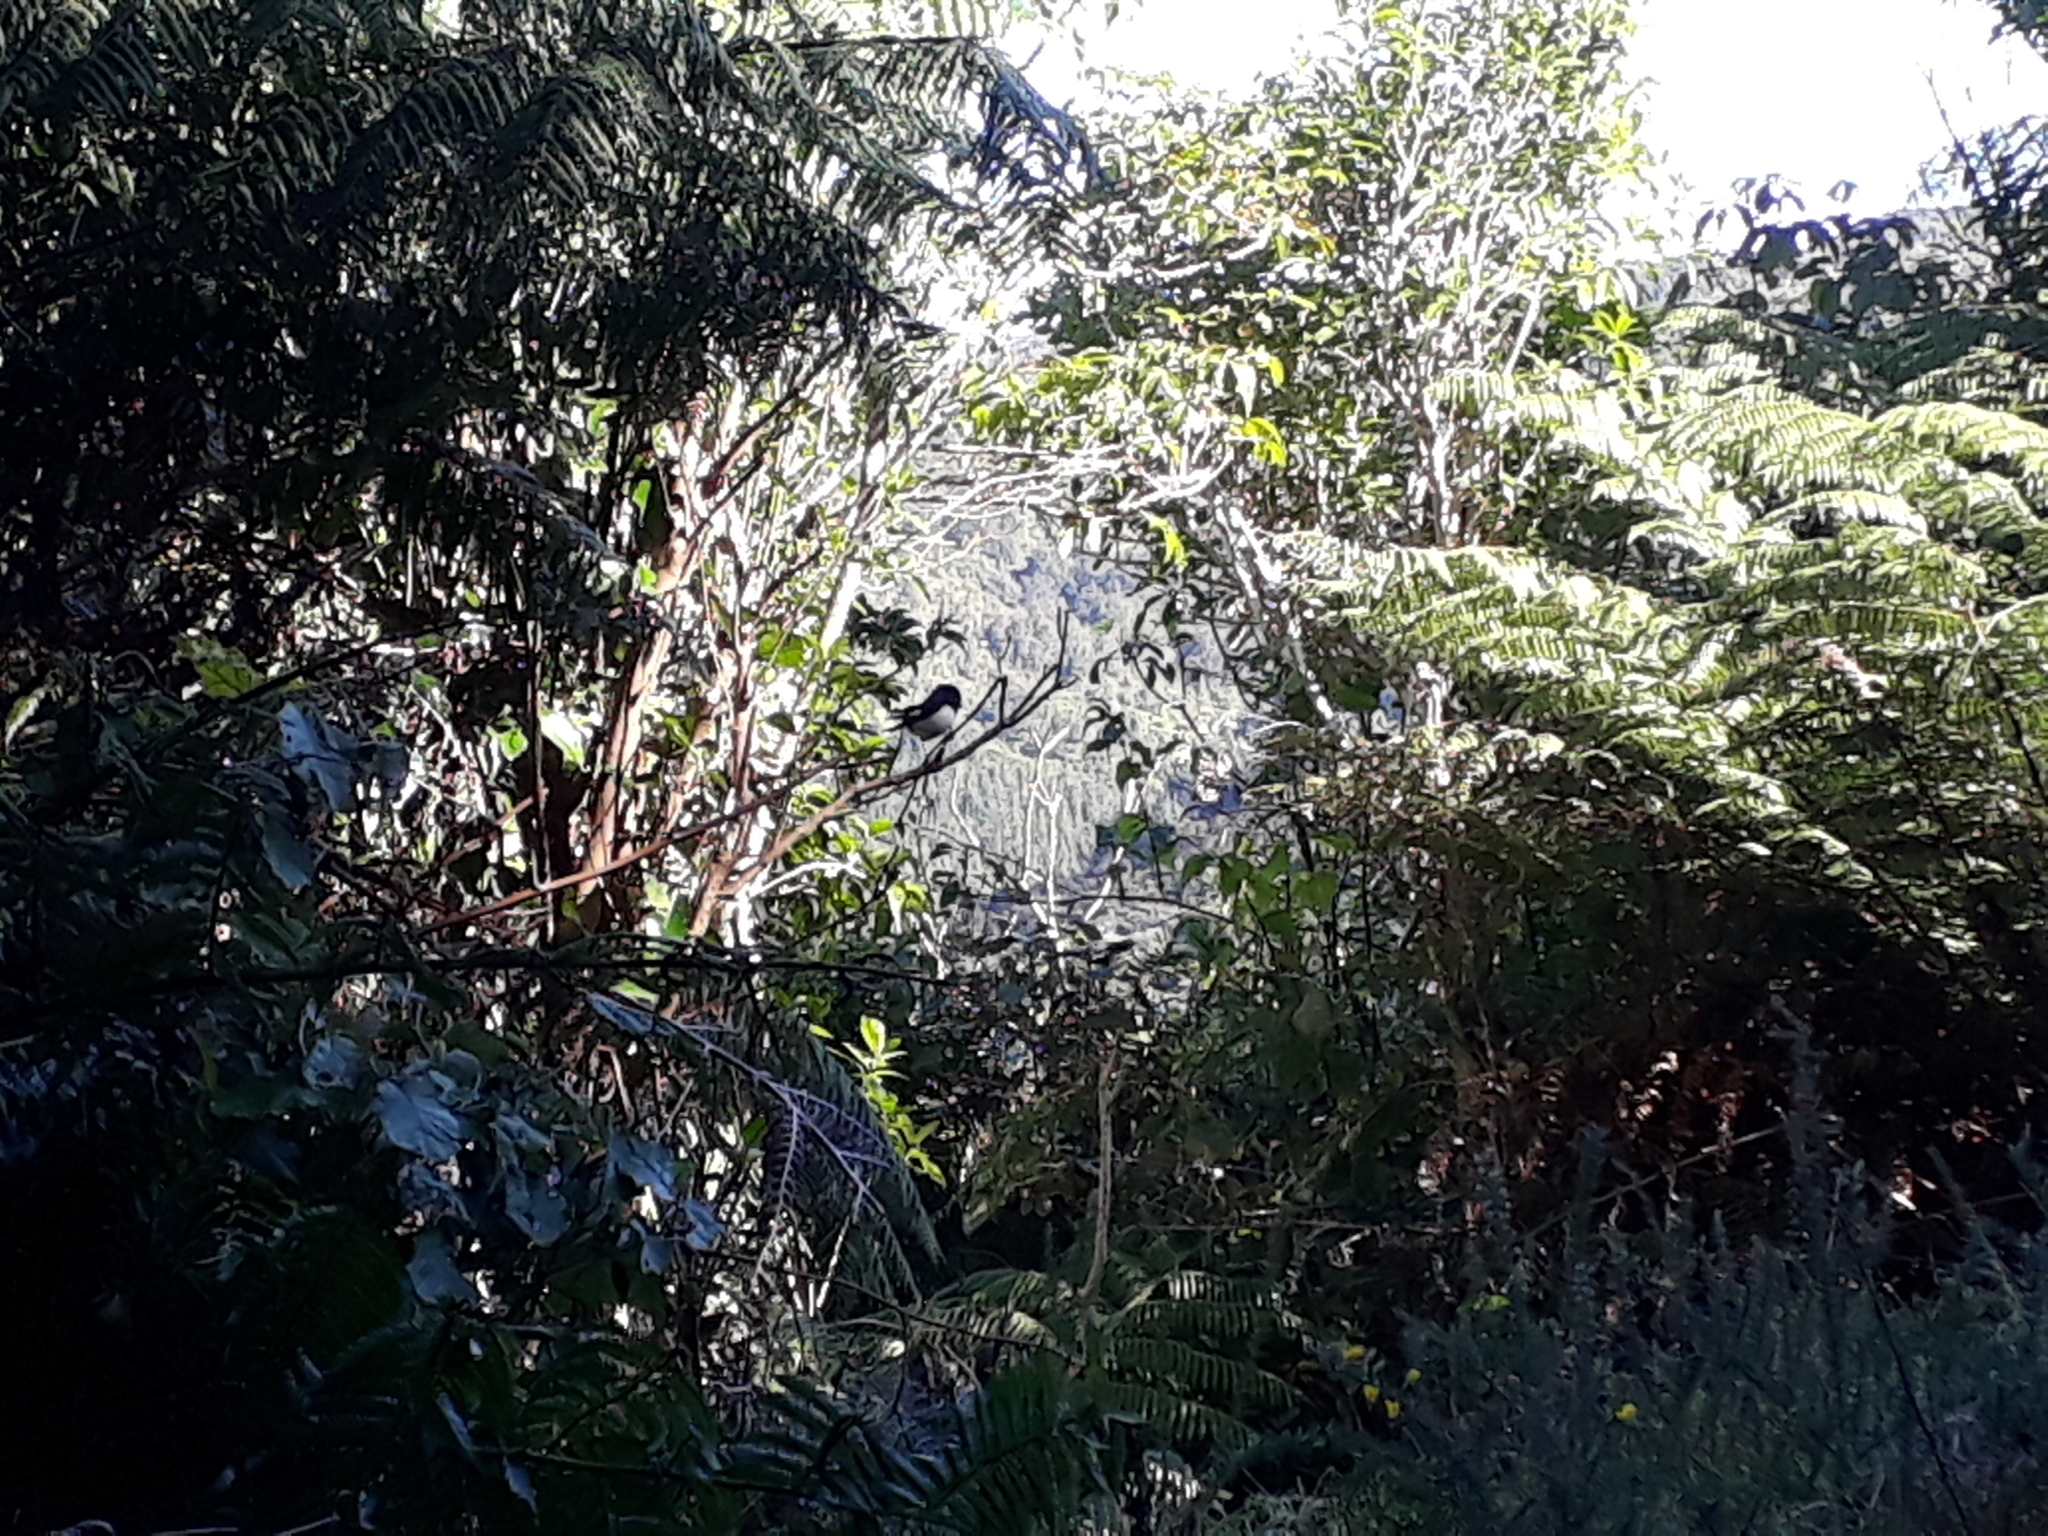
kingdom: Animalia
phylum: Chordata
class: Aves
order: Passeriformes
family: Petroicidae
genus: Petroica
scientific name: Petroica macrocephala
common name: Tomtit
